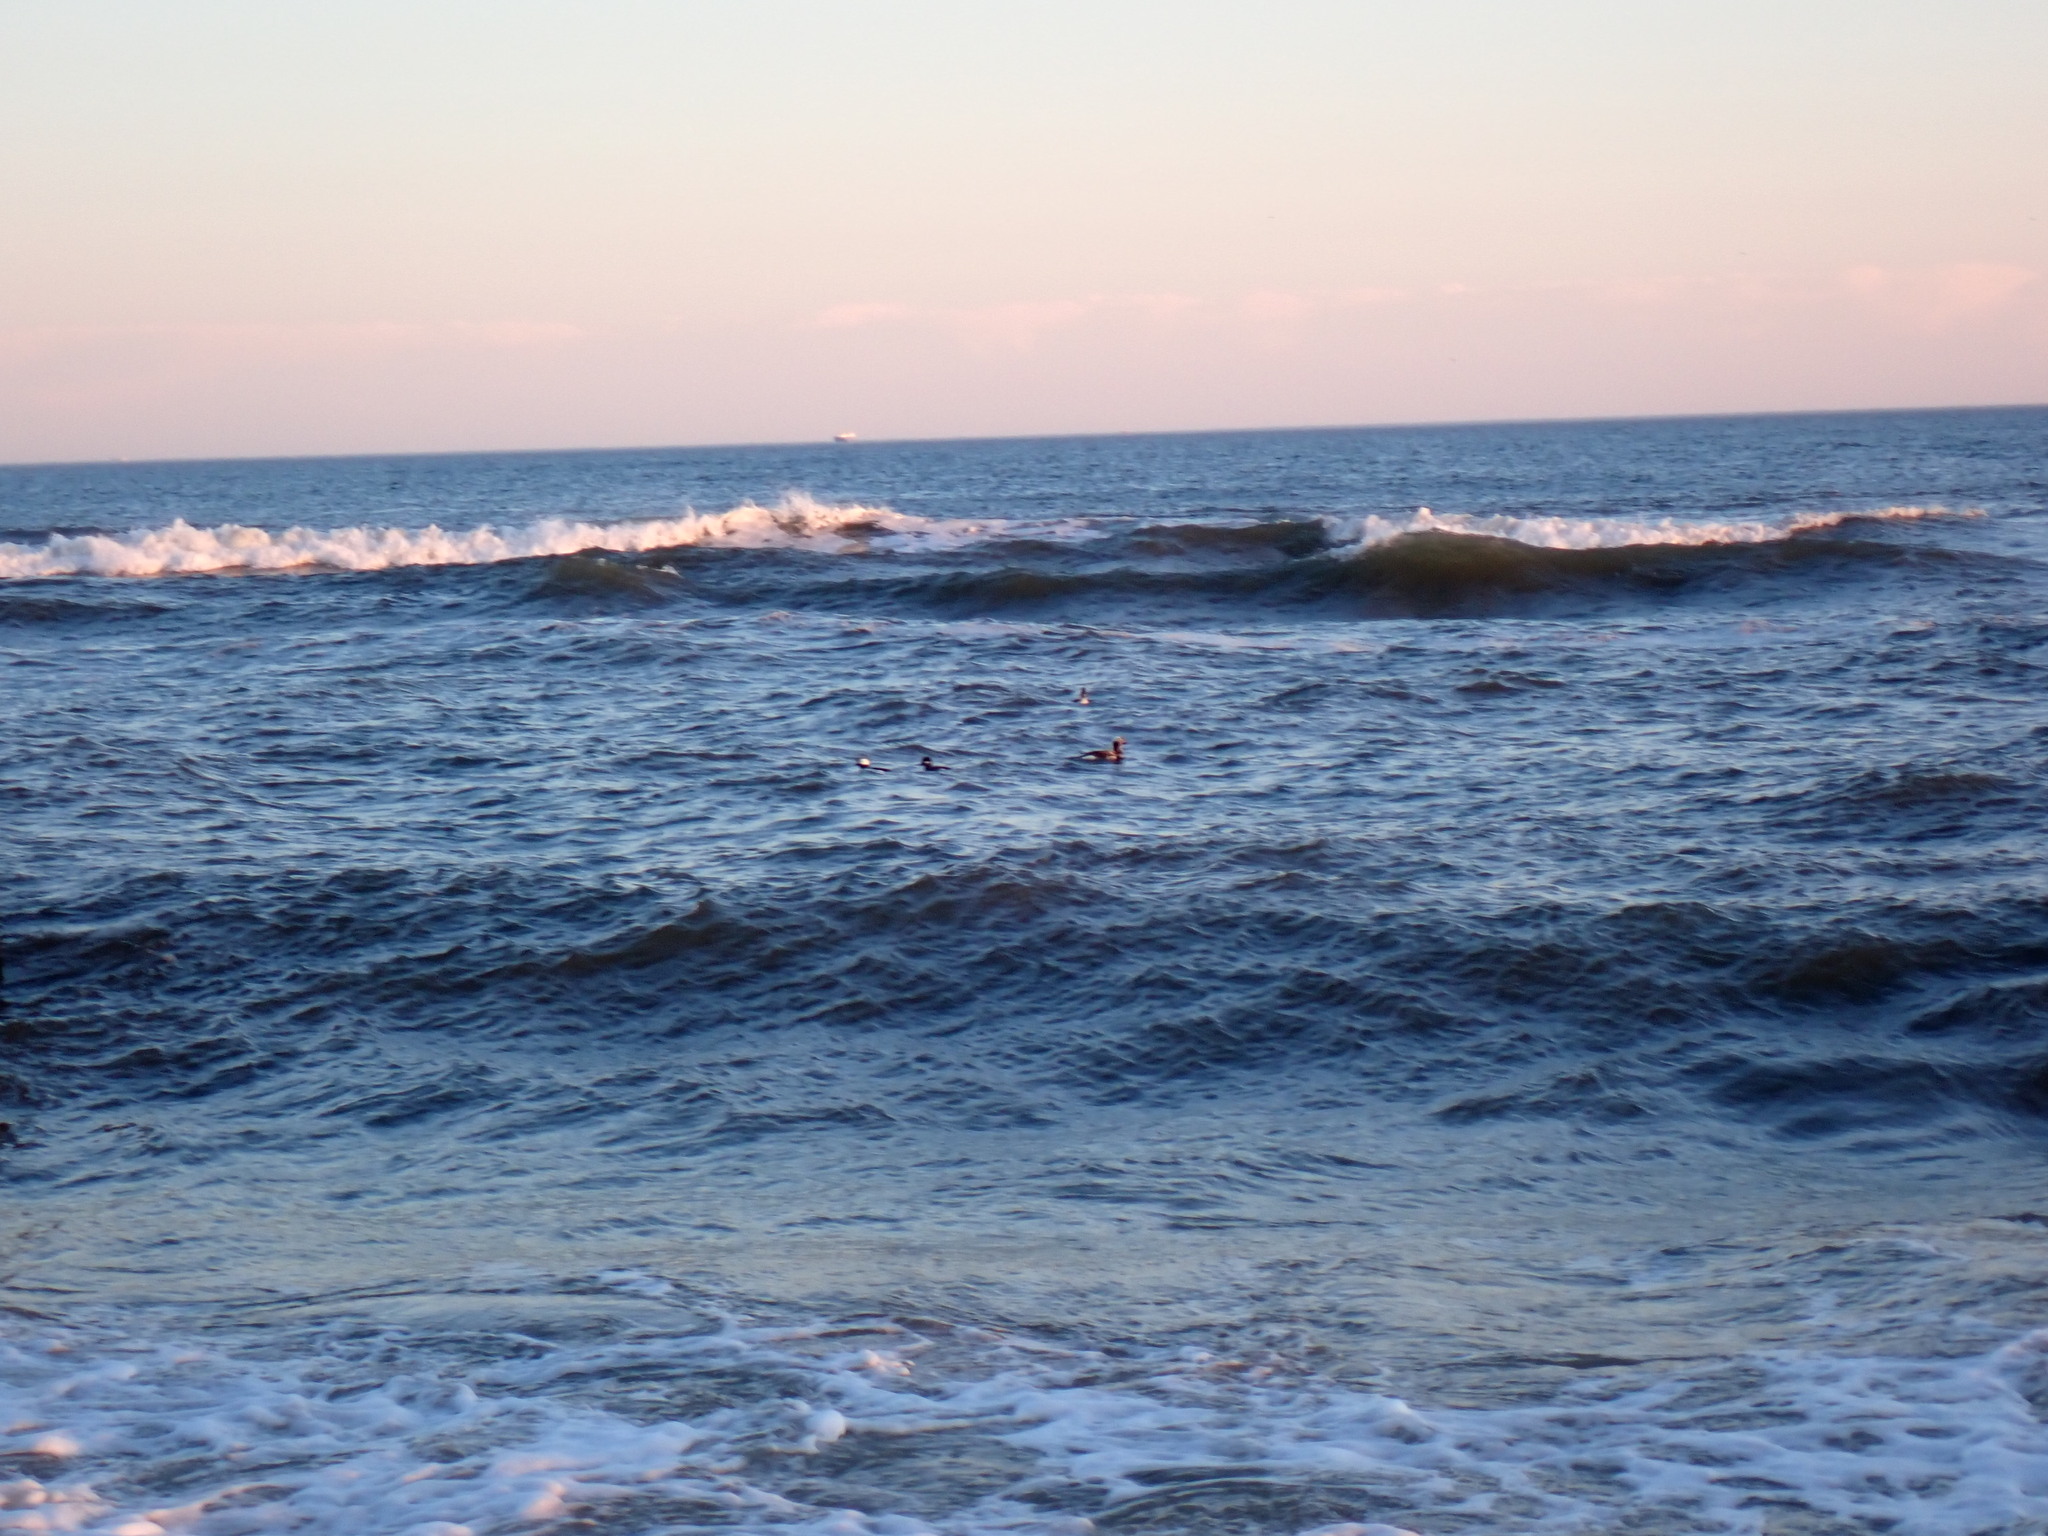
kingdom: Animalia
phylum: Chordata
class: Aves
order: Anseriformes
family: Anatidae
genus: Bucephala
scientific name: Bucephala albeola
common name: Bufflehead
